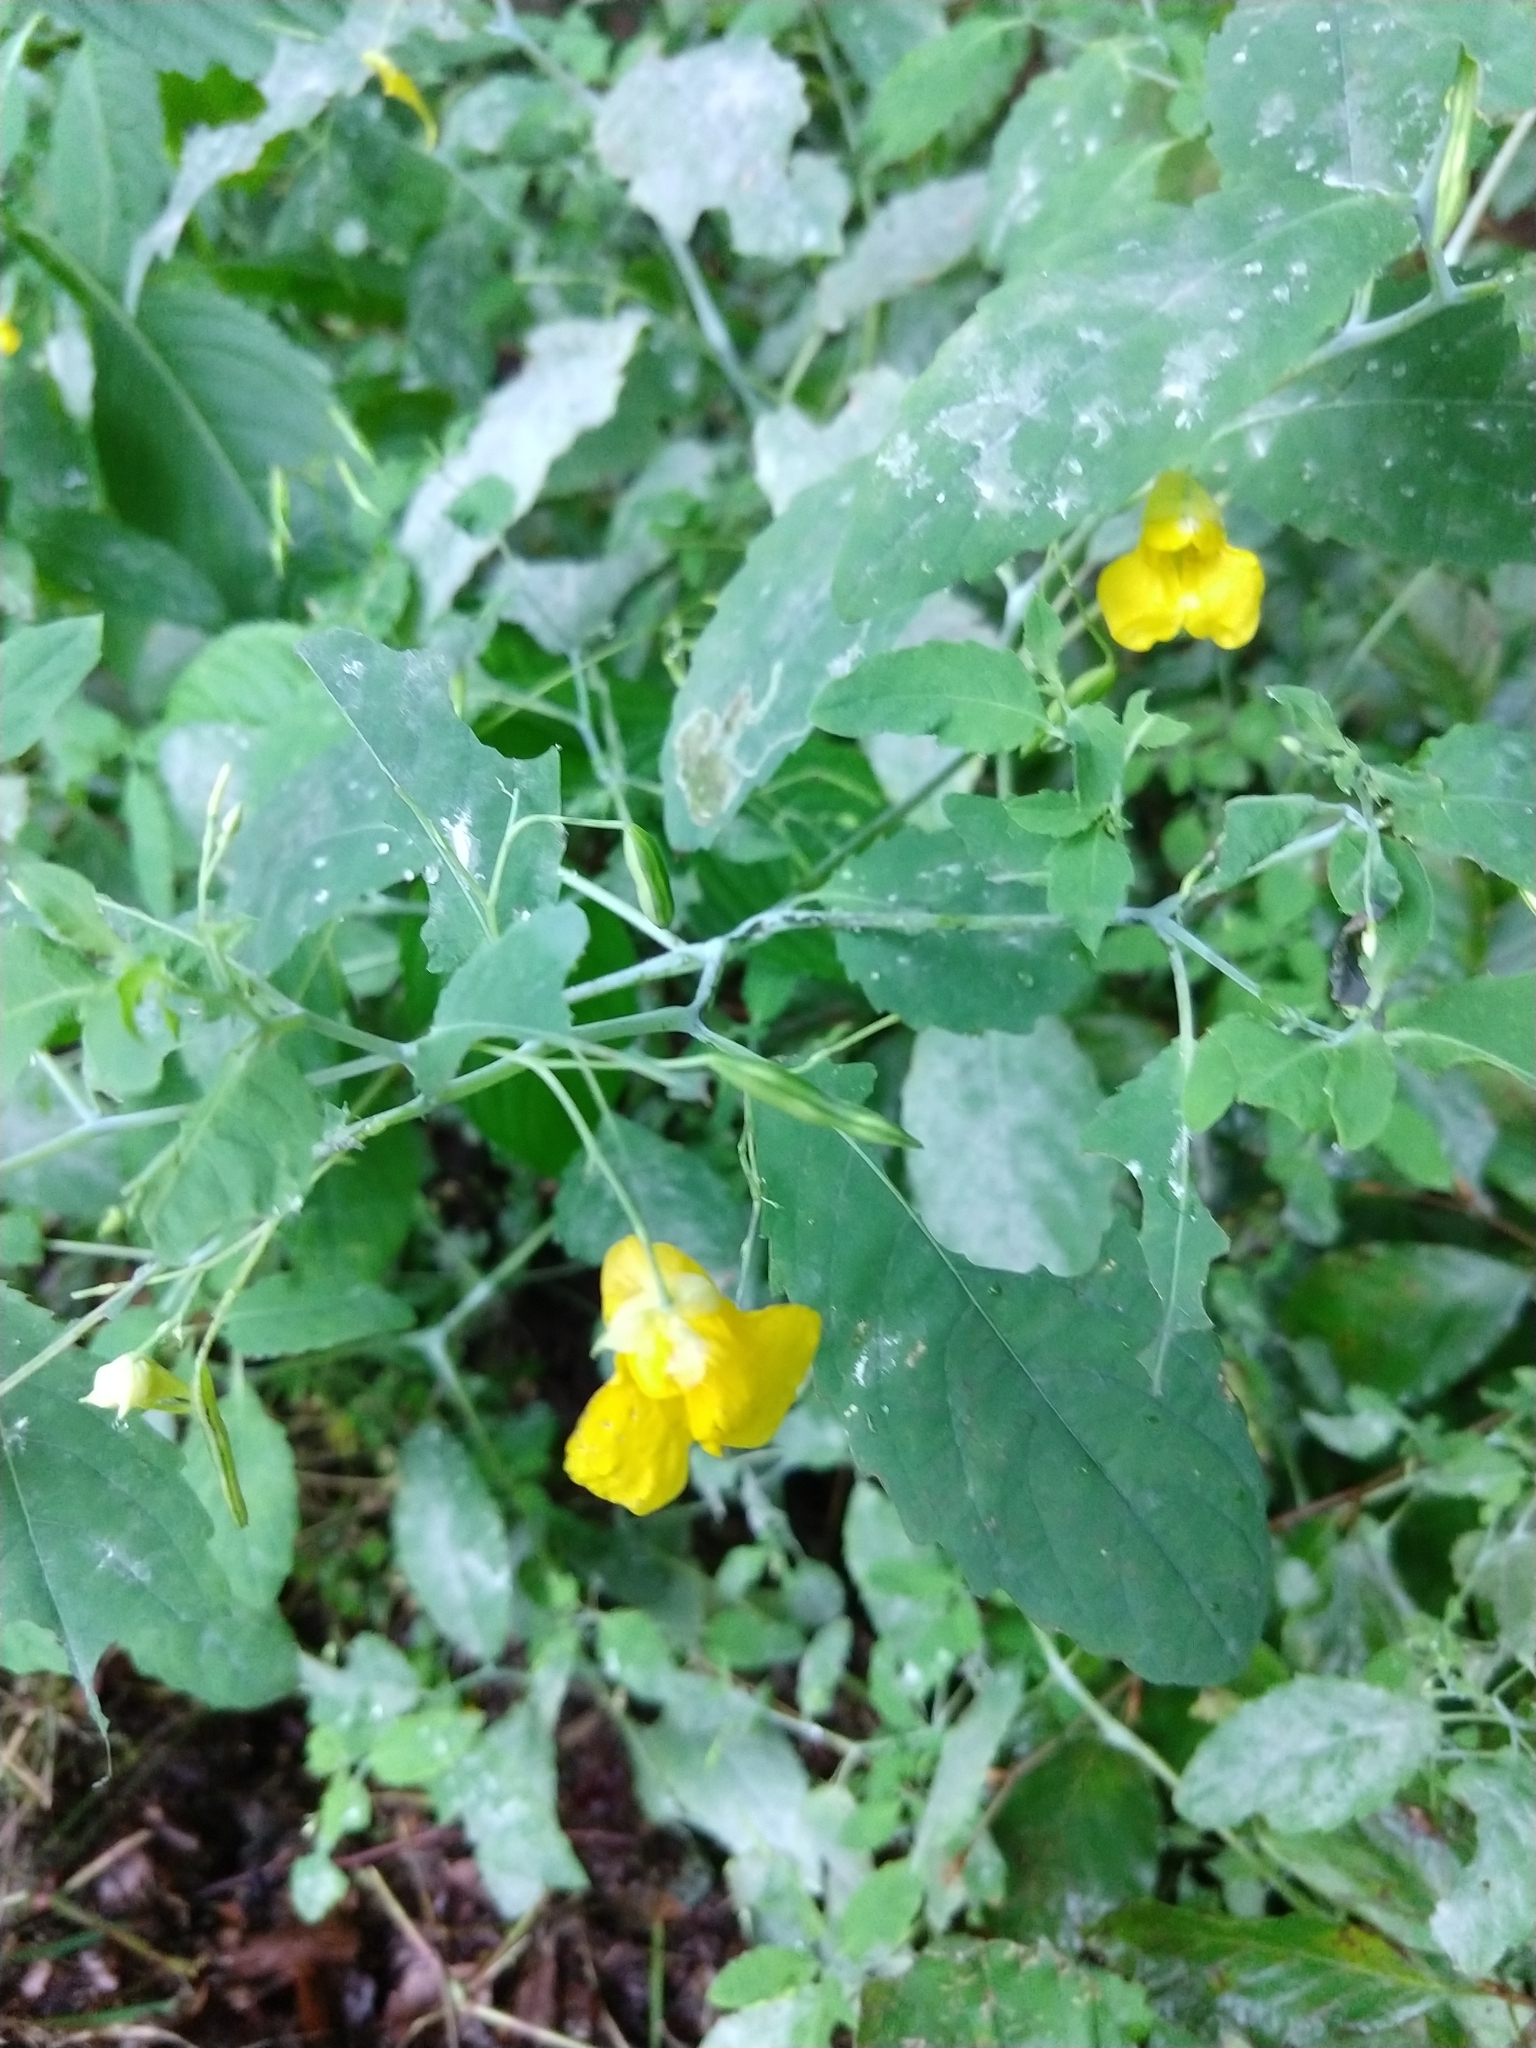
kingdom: Plantae
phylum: Tracheophyta
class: Magnoliopsida
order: Ericales
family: Balsaminaceae
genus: Impatiens
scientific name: Impatiens noli-tangere
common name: Touch-me-not balsam
